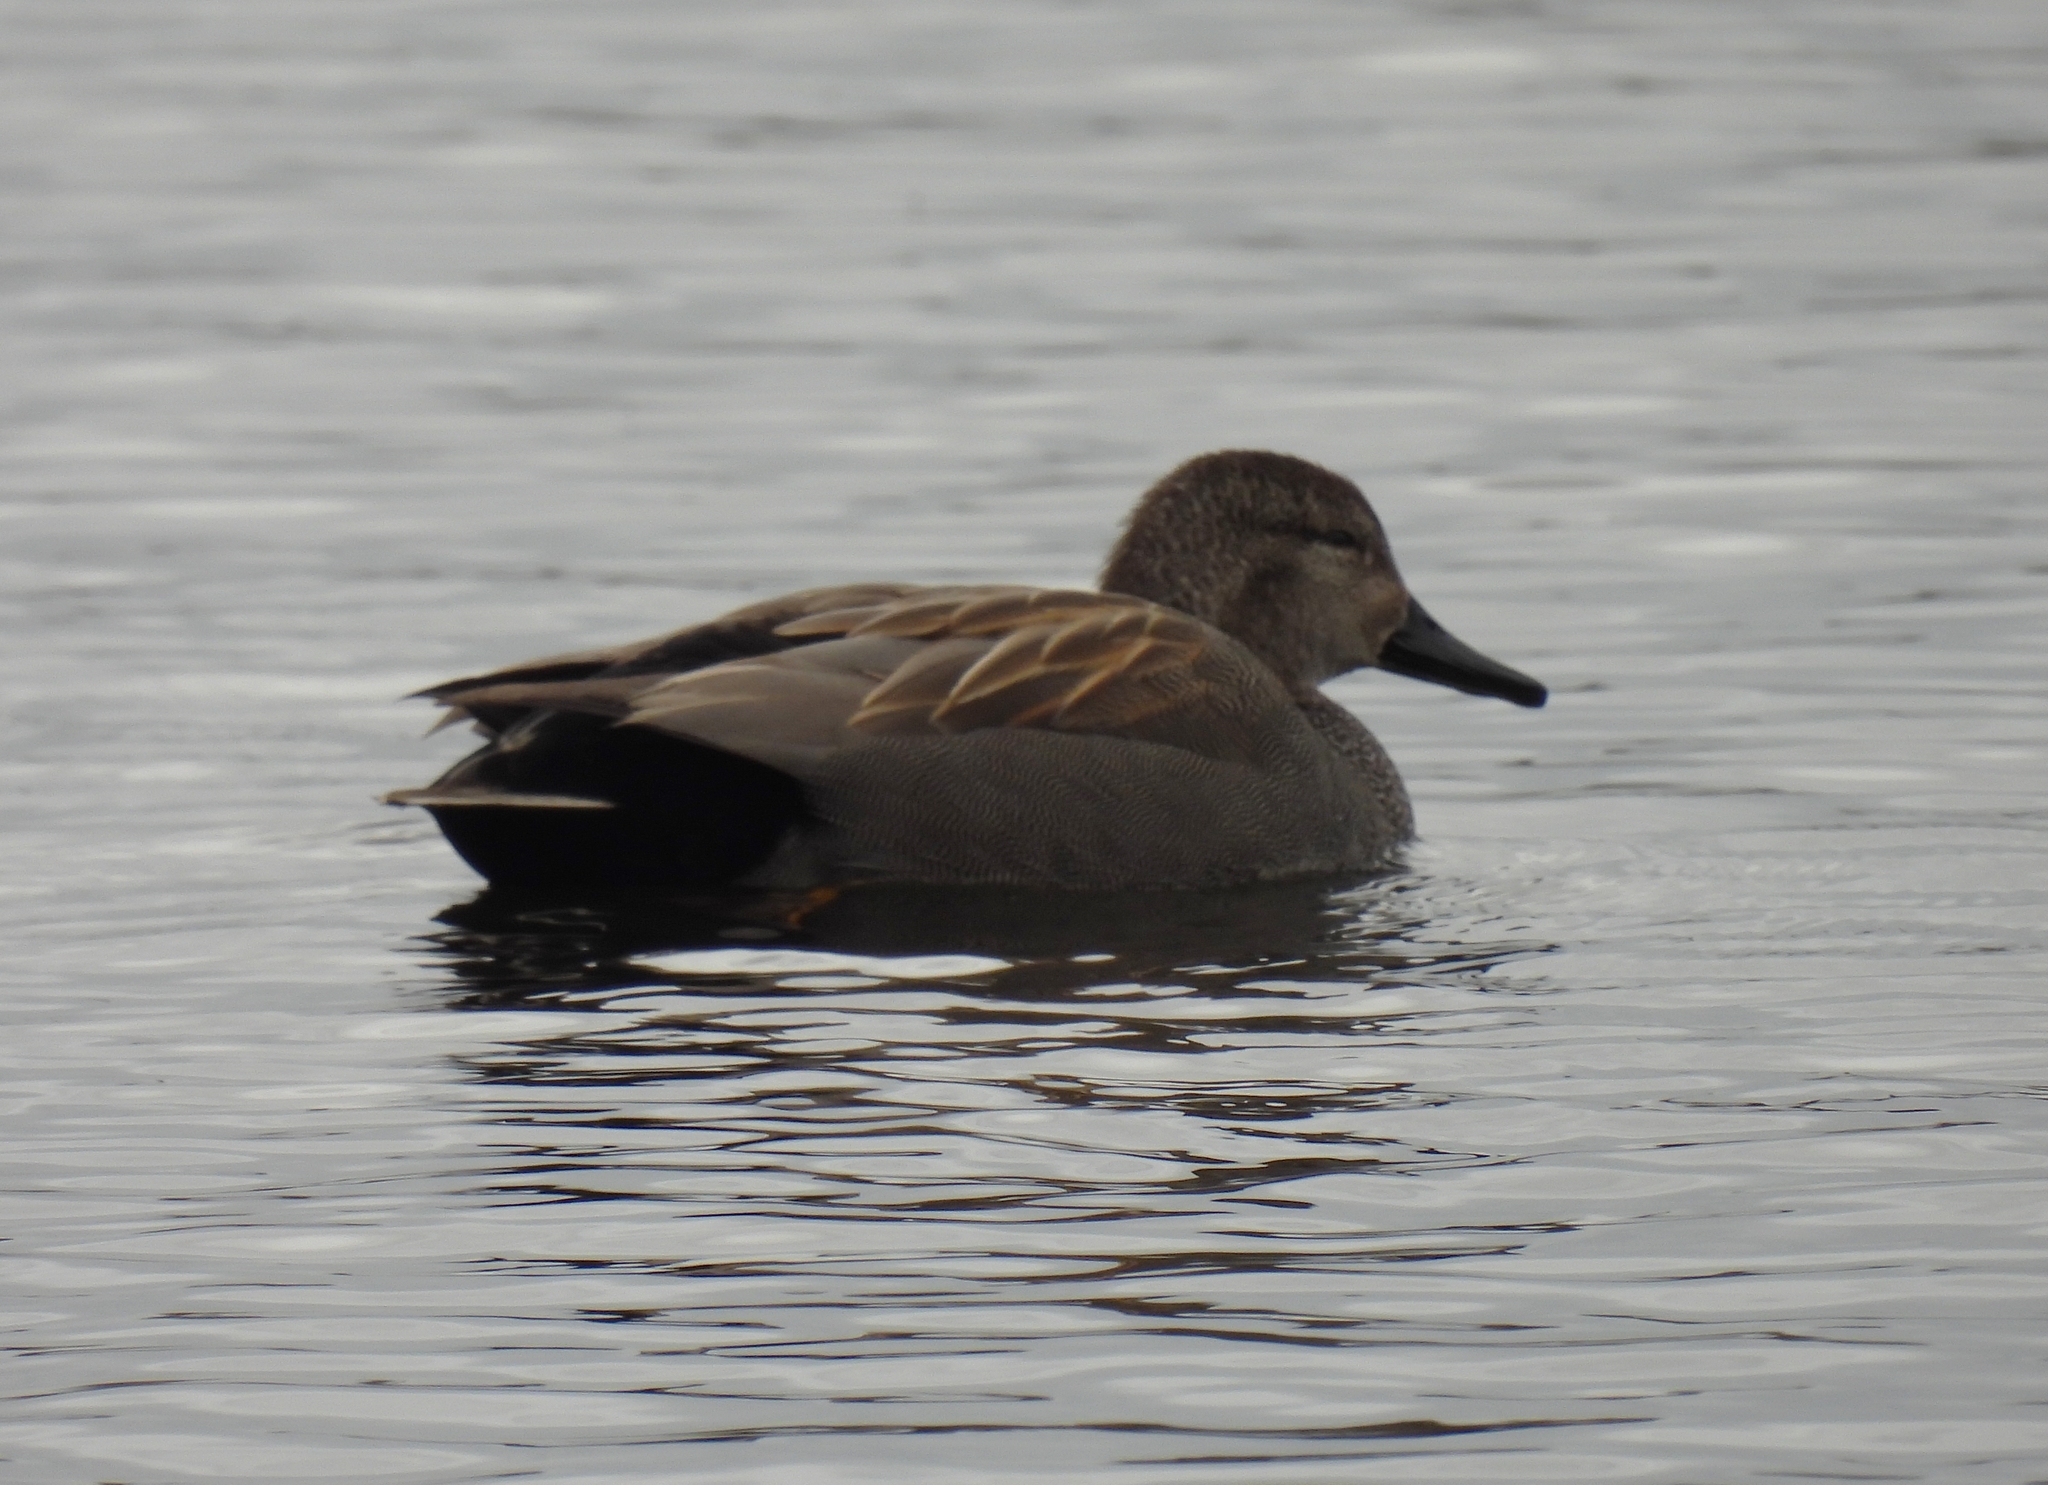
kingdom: Animalia
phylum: Chordata
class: Aves
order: Anseriformes
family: Anatidae
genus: Mareca
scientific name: Mareca strepera
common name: Gadwall
